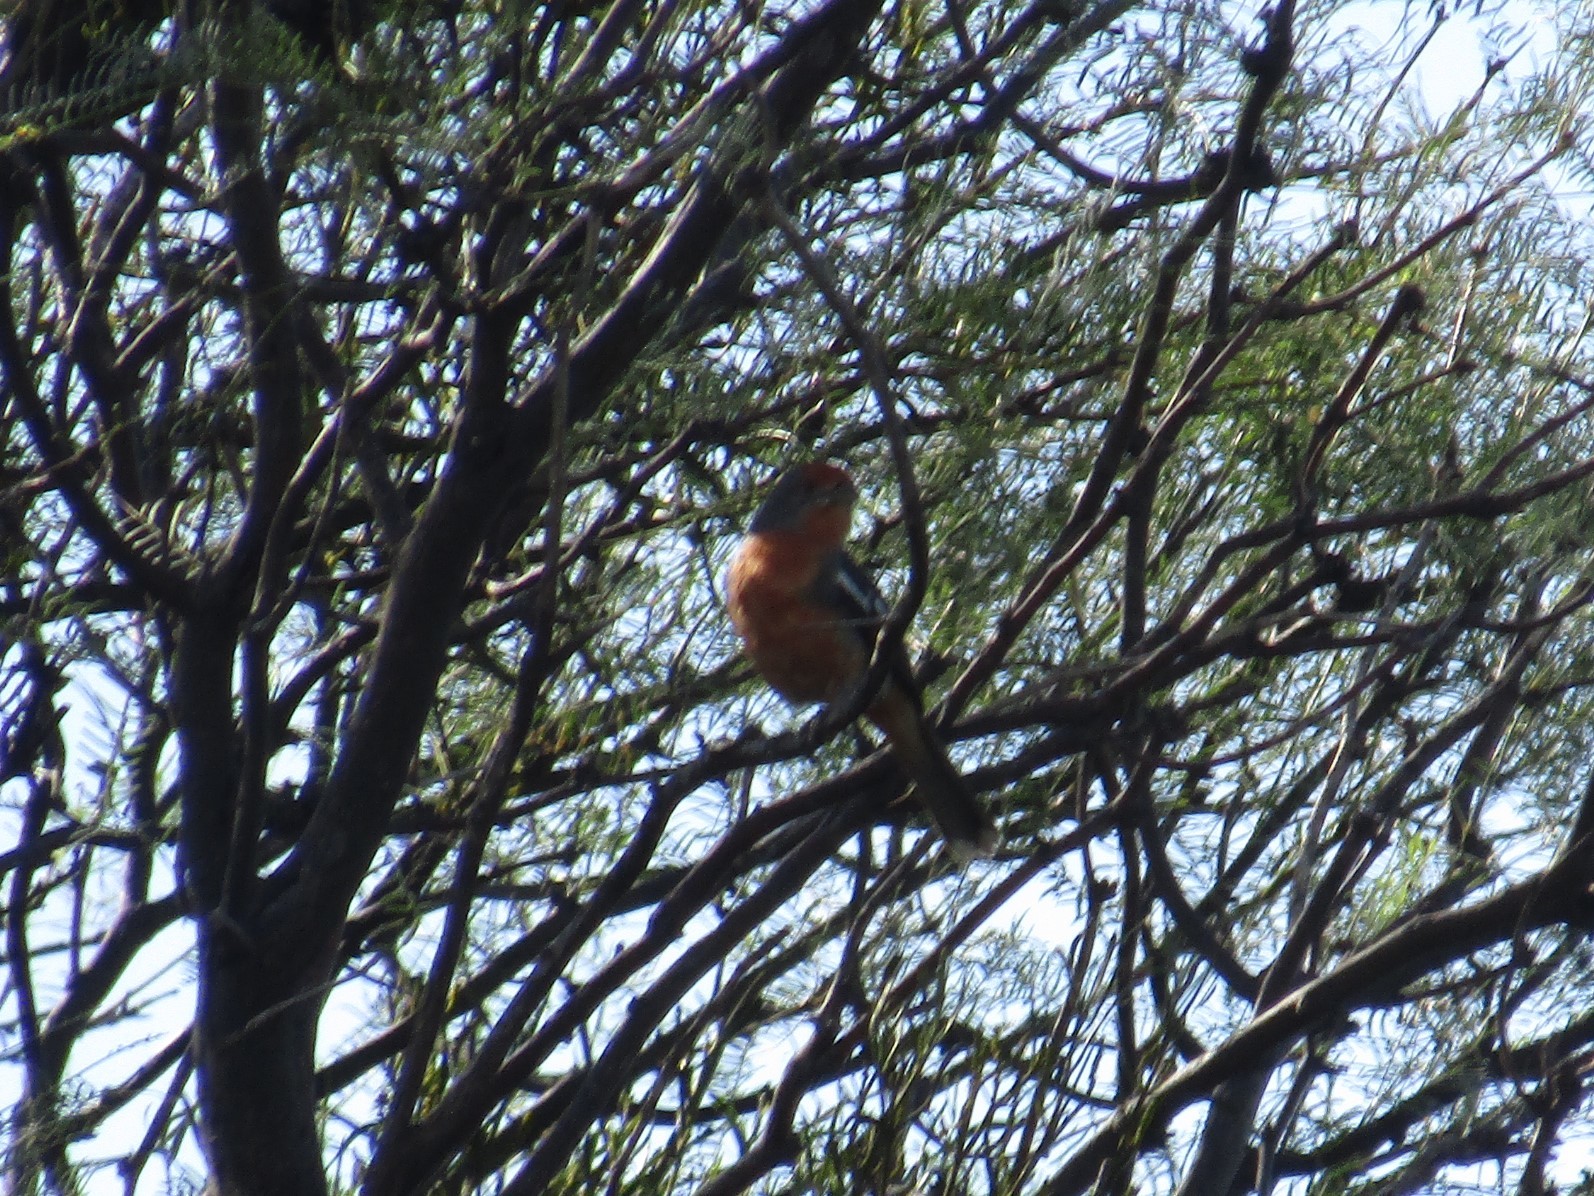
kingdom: Animalia
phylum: Chordata
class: Aves
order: Passeriformes
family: Cotingidae
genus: Phytotoma
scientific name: Phytotoma rutila
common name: White-tipped plantcutter
